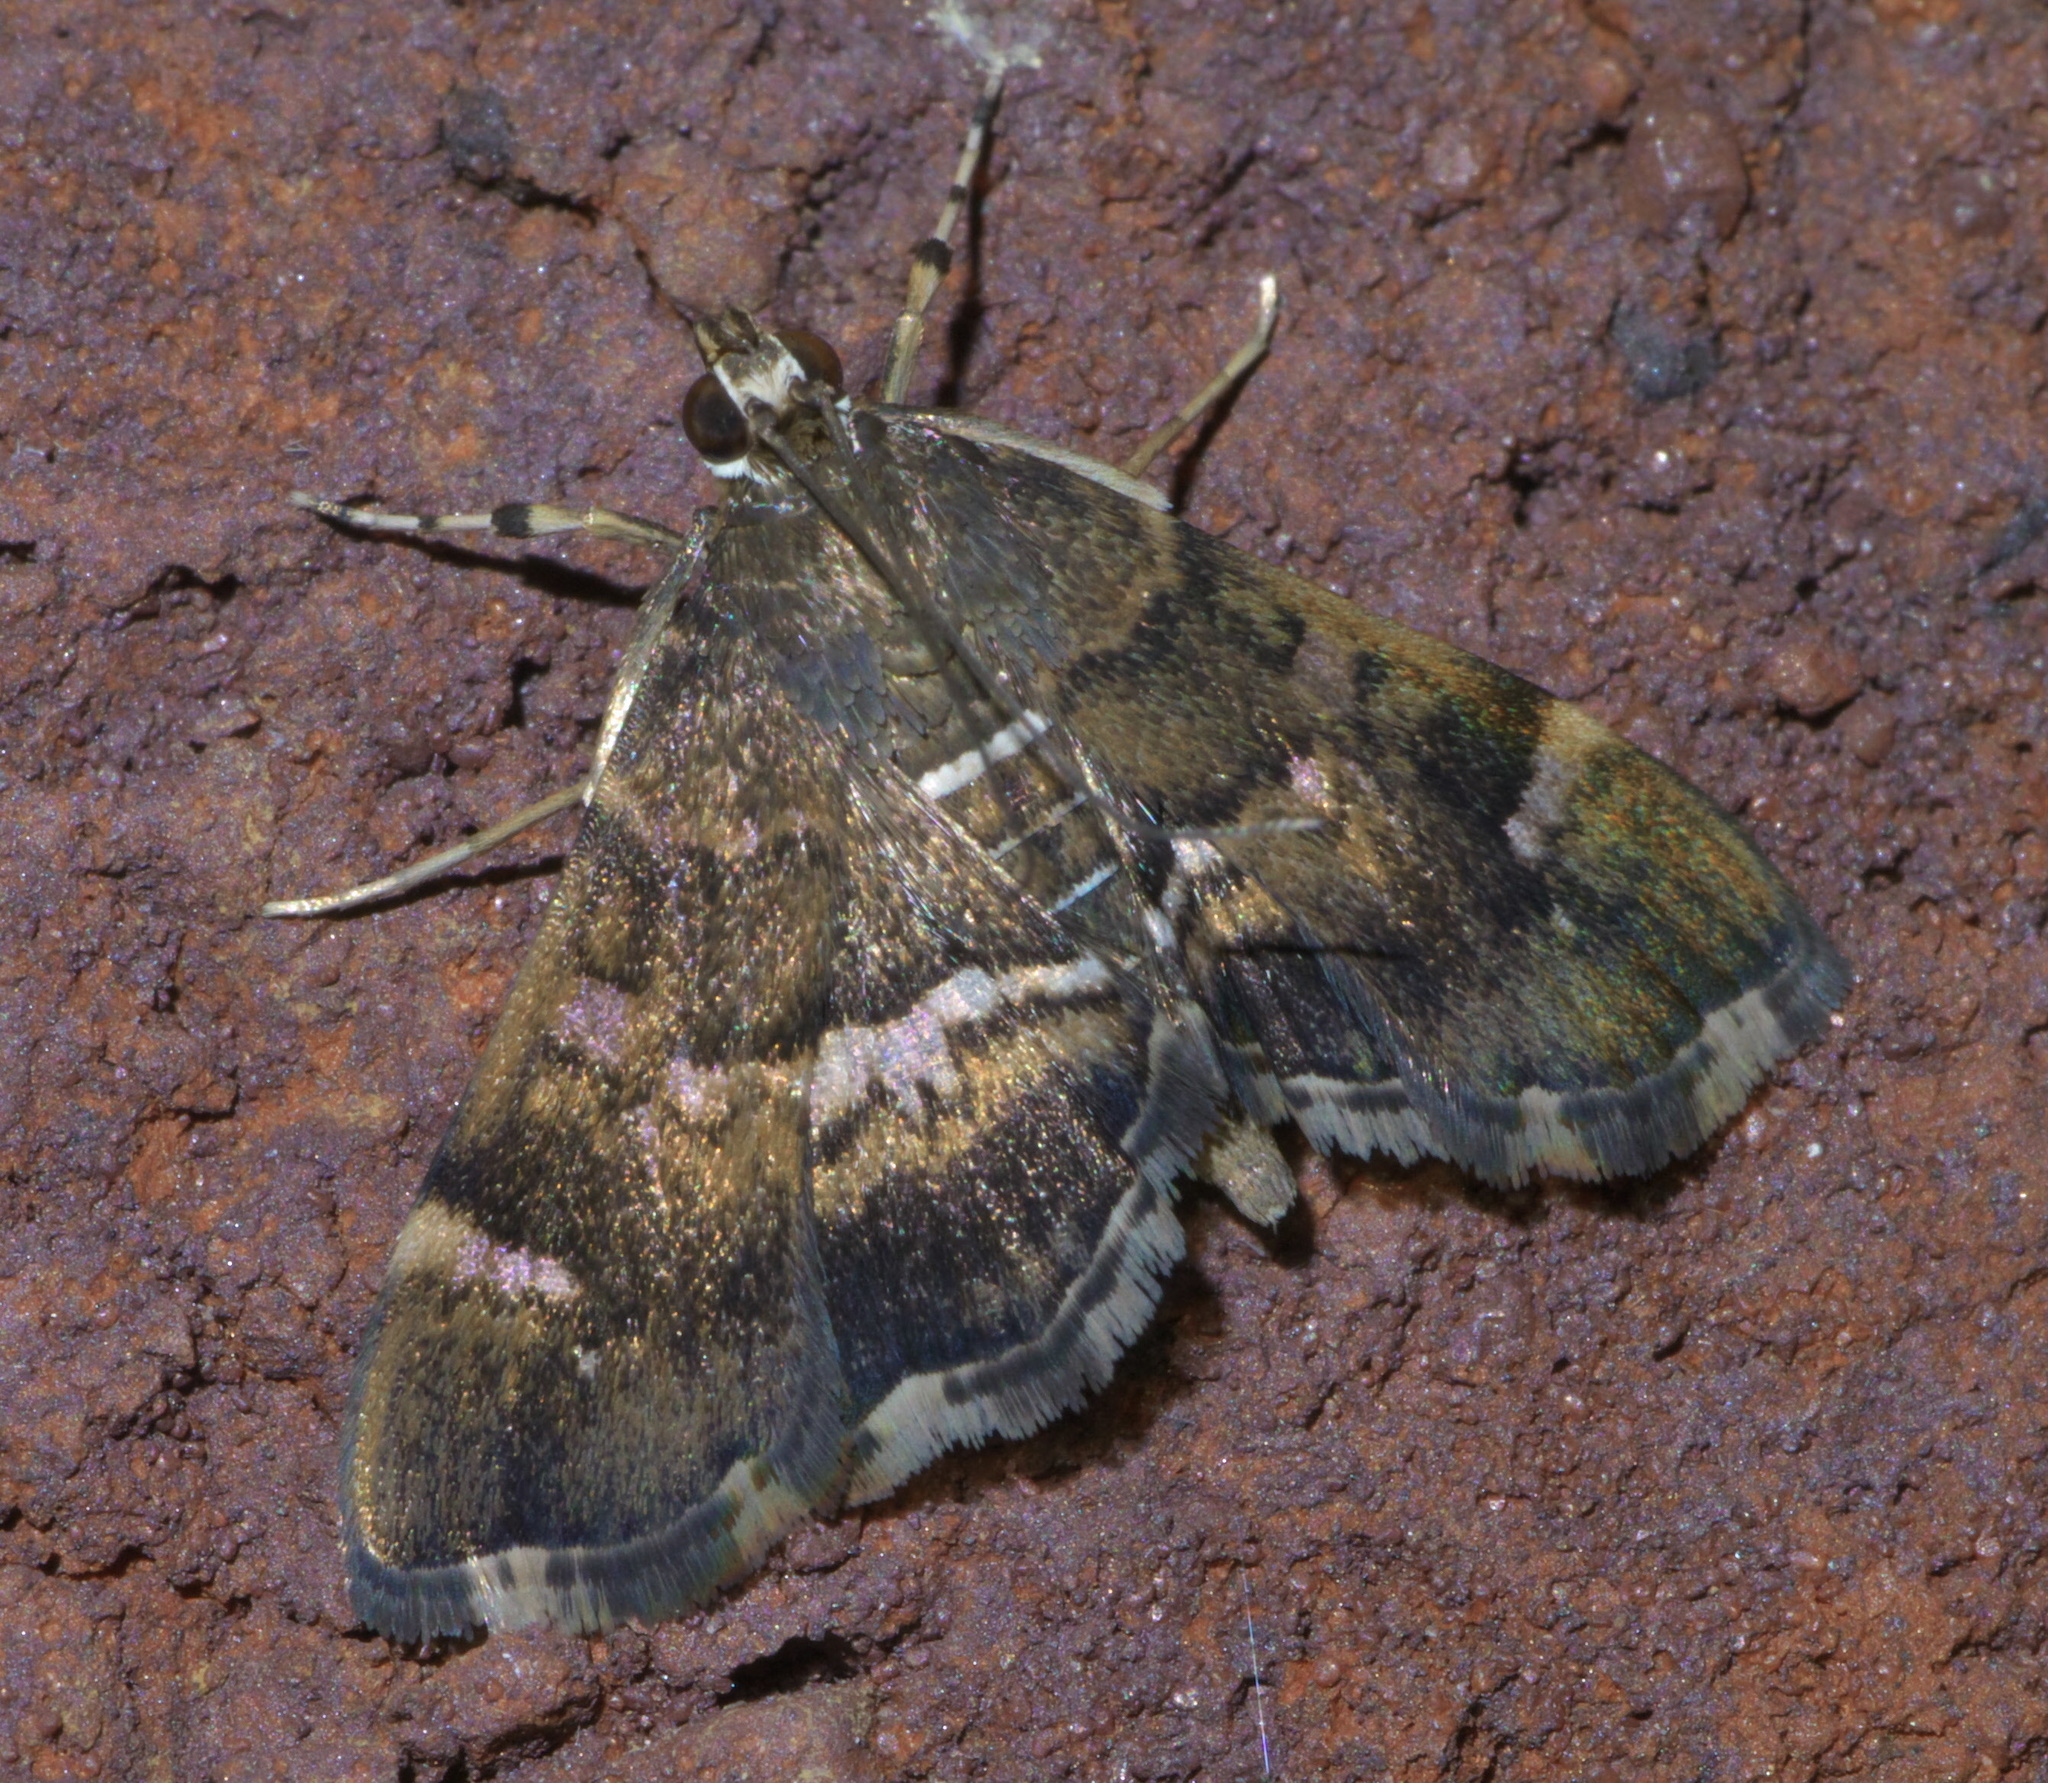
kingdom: Animalia
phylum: Arthropoda
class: Insecta
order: Lepidoptera
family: Crambidae
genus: Hymenia
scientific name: Hymenia perspectalis
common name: Spotted beet webworm
